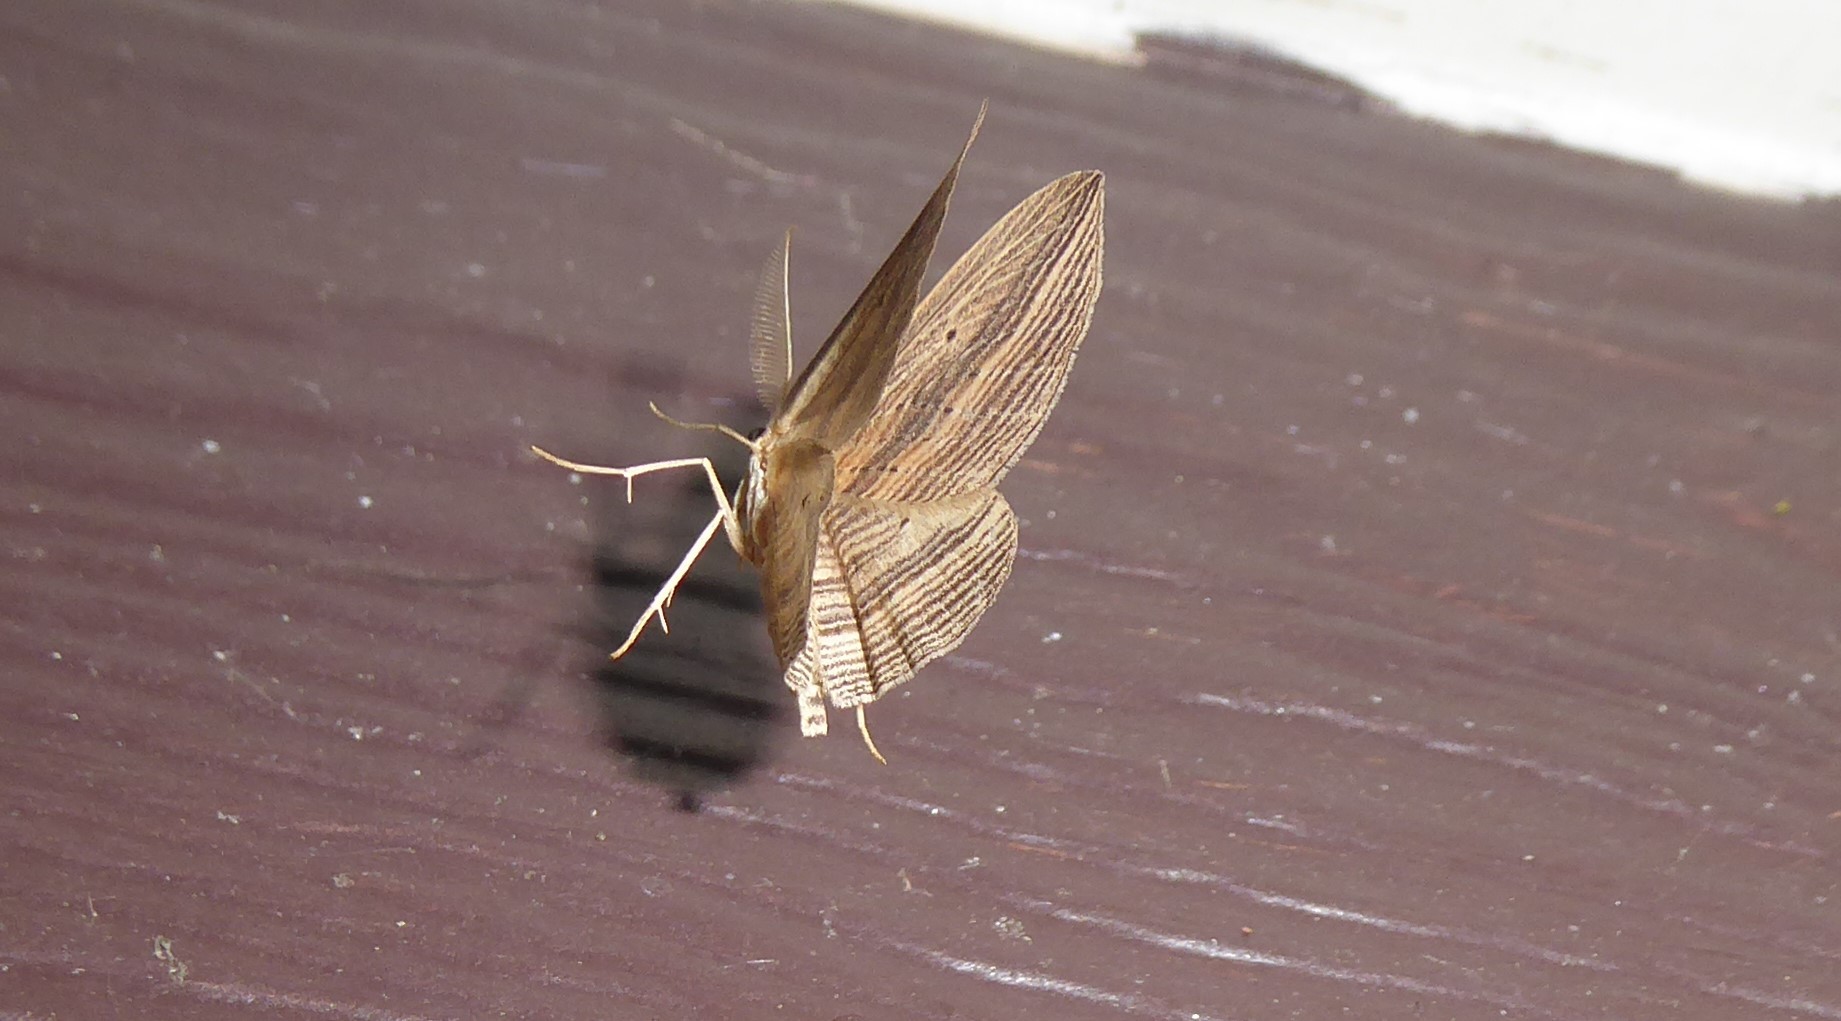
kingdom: Animalia
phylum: Arthropoda
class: Insecta
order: Lepidoptera
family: Geometridae
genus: Epiphryne
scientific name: Epiphryne verriculata
